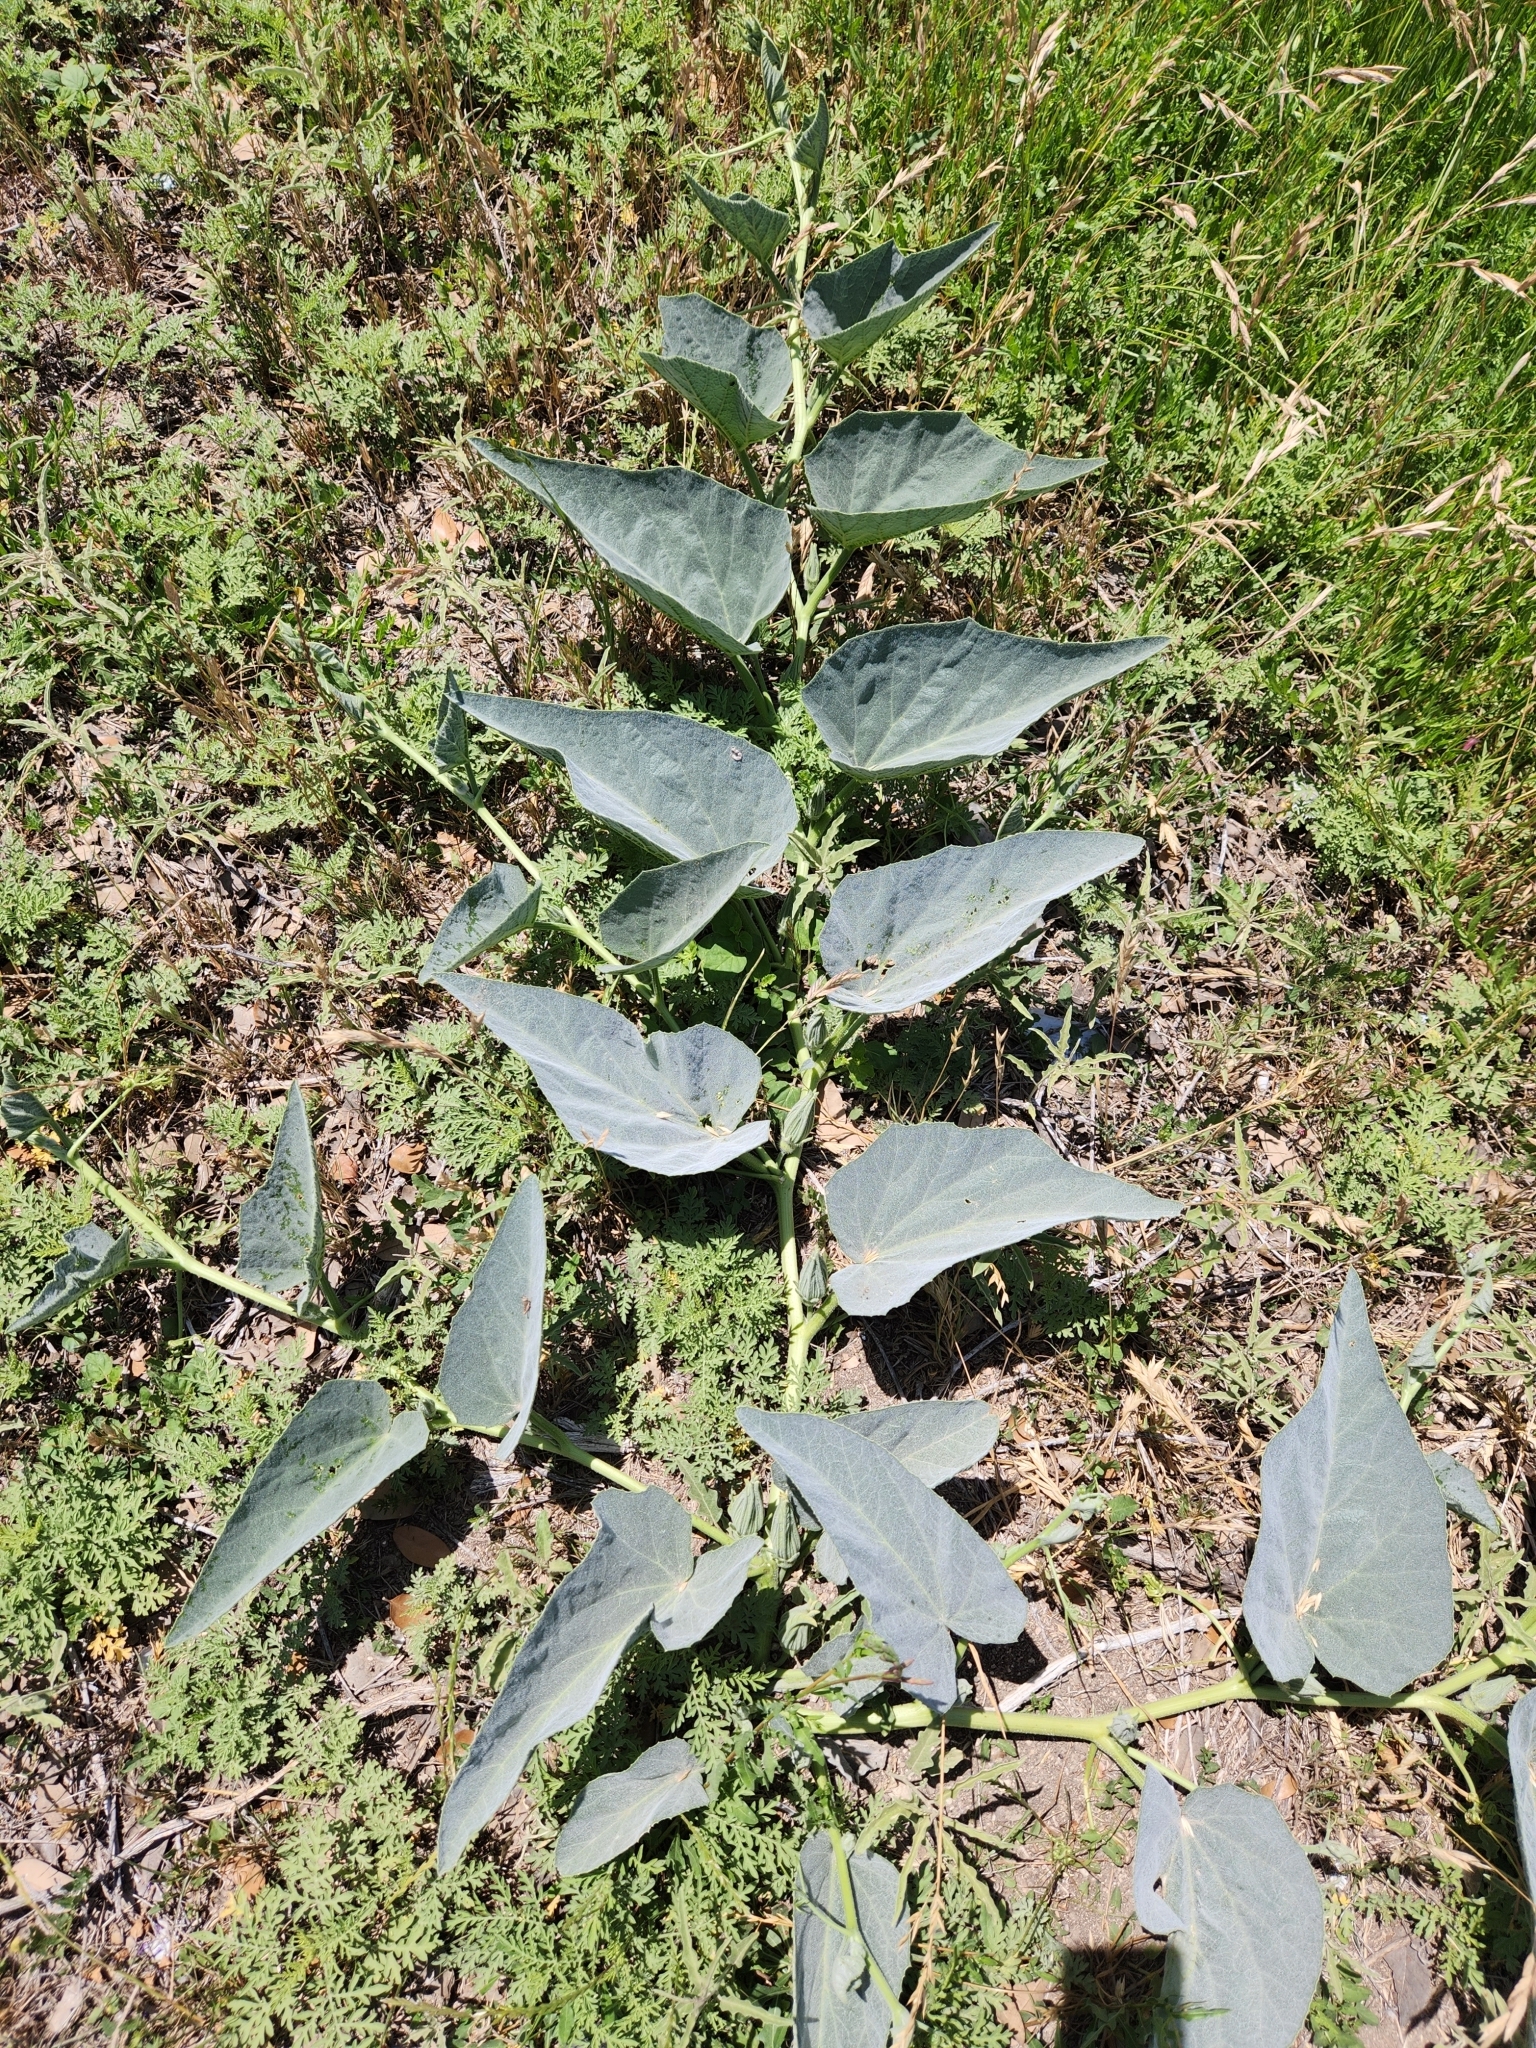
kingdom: Plantae
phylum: Tracheophyta
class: Magnoliopsida
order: Cucurbitales
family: Cucurbitaceae
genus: Cucurbita
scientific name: Cucurbita foetidissima
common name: Buffalo gourd
